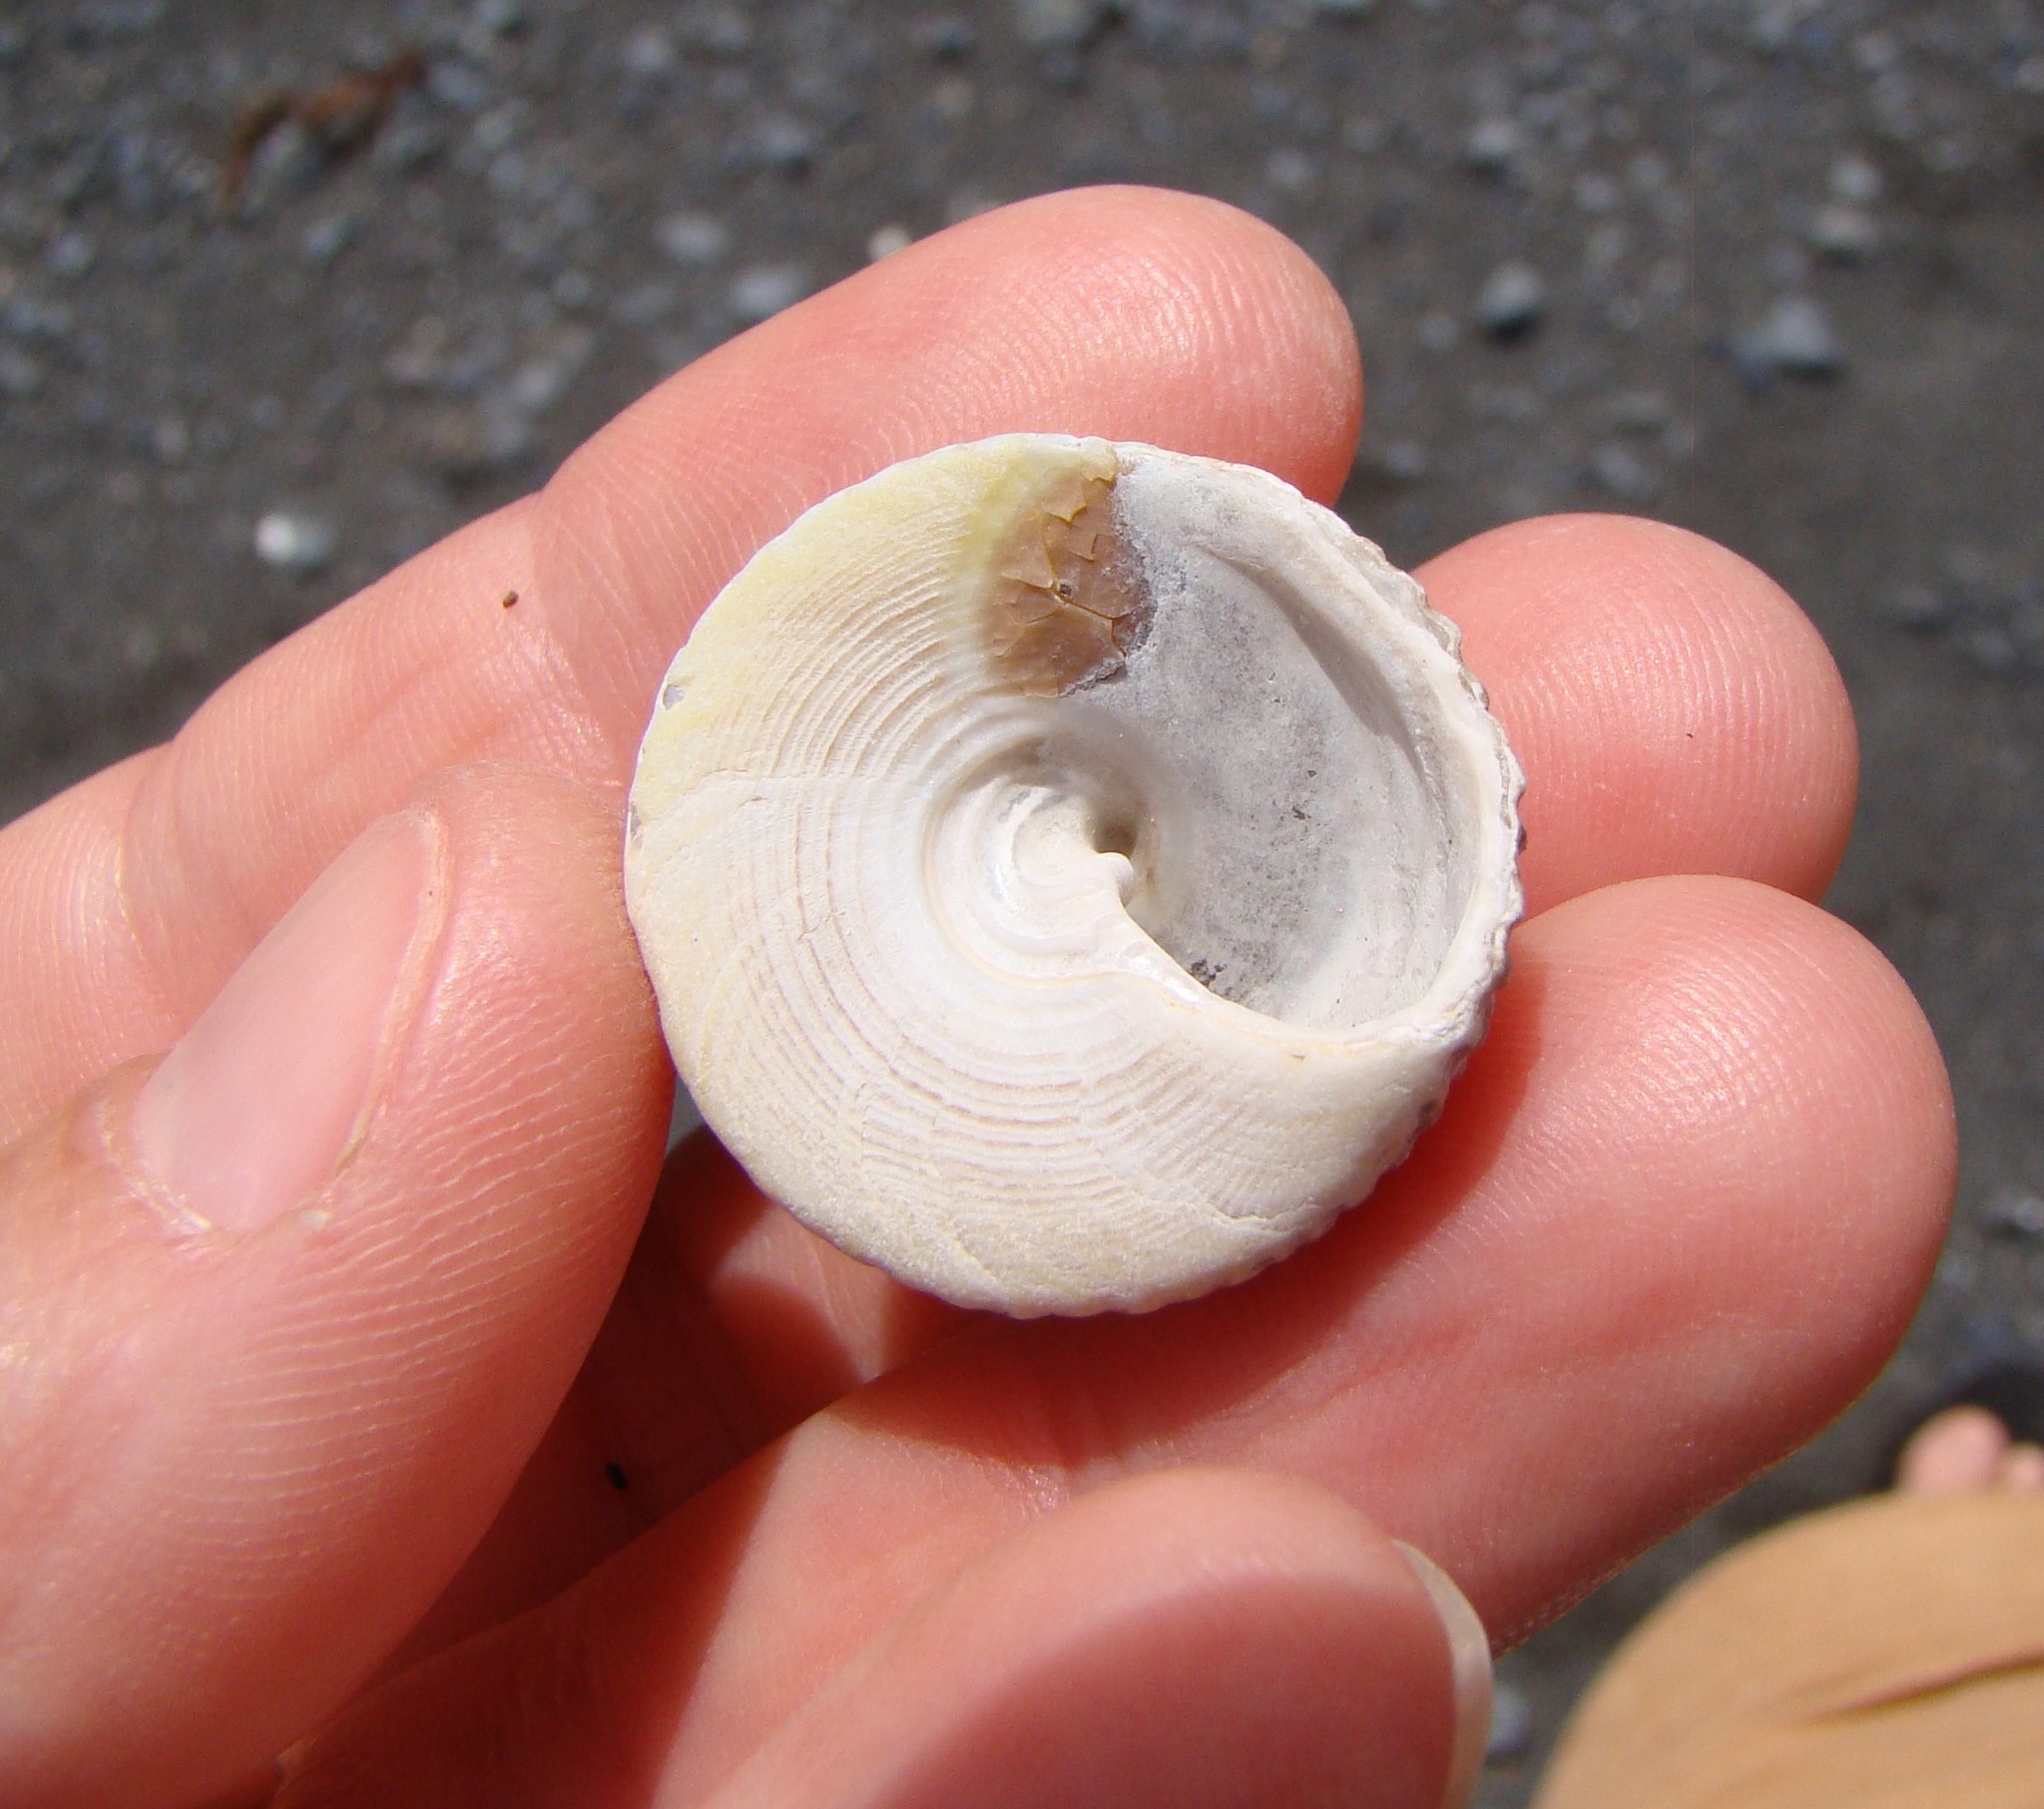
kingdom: Animalia
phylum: Mollusca
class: Gastropoda
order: Trochida
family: Trochidae
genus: Coelotrochus
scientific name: Coelotrochus viridis
